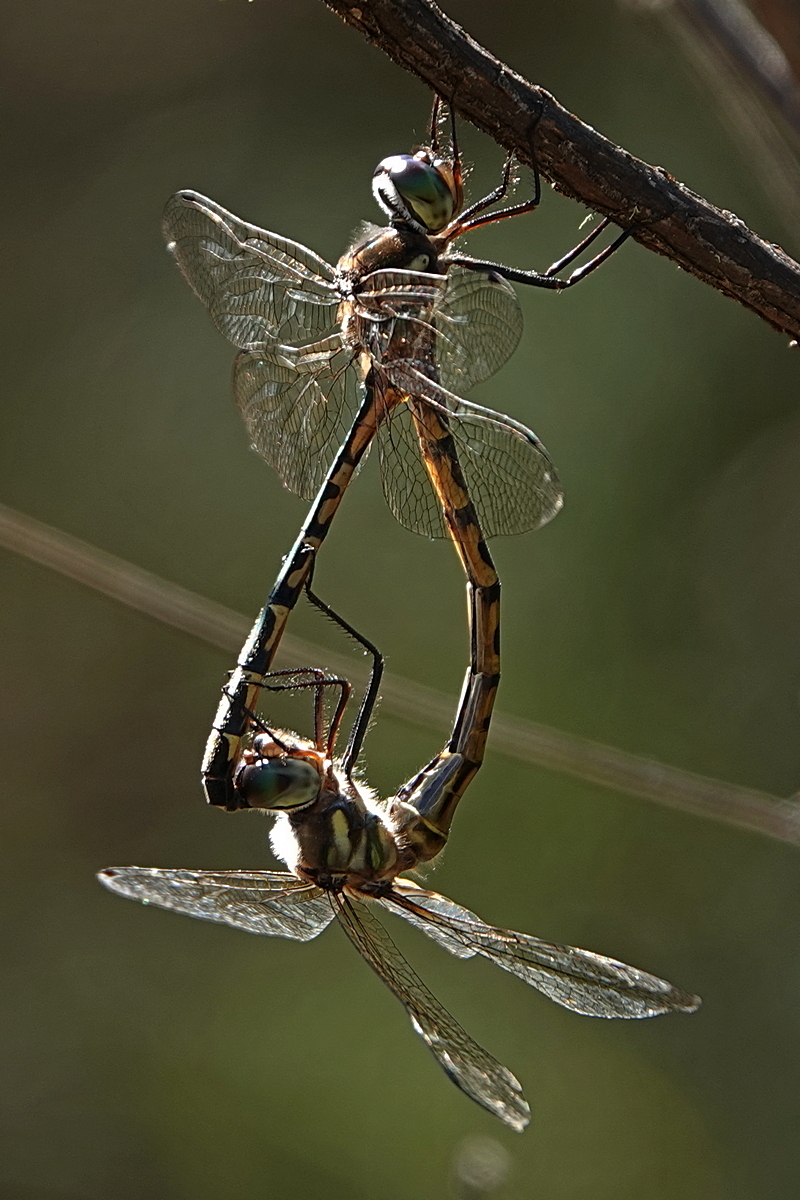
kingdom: Animalia
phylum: Arthropoda
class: Insecta
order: Odonata
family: Corduliidae
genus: Hemicordulia
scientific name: Hemicordulia australiae
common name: Sentry dragonfly
